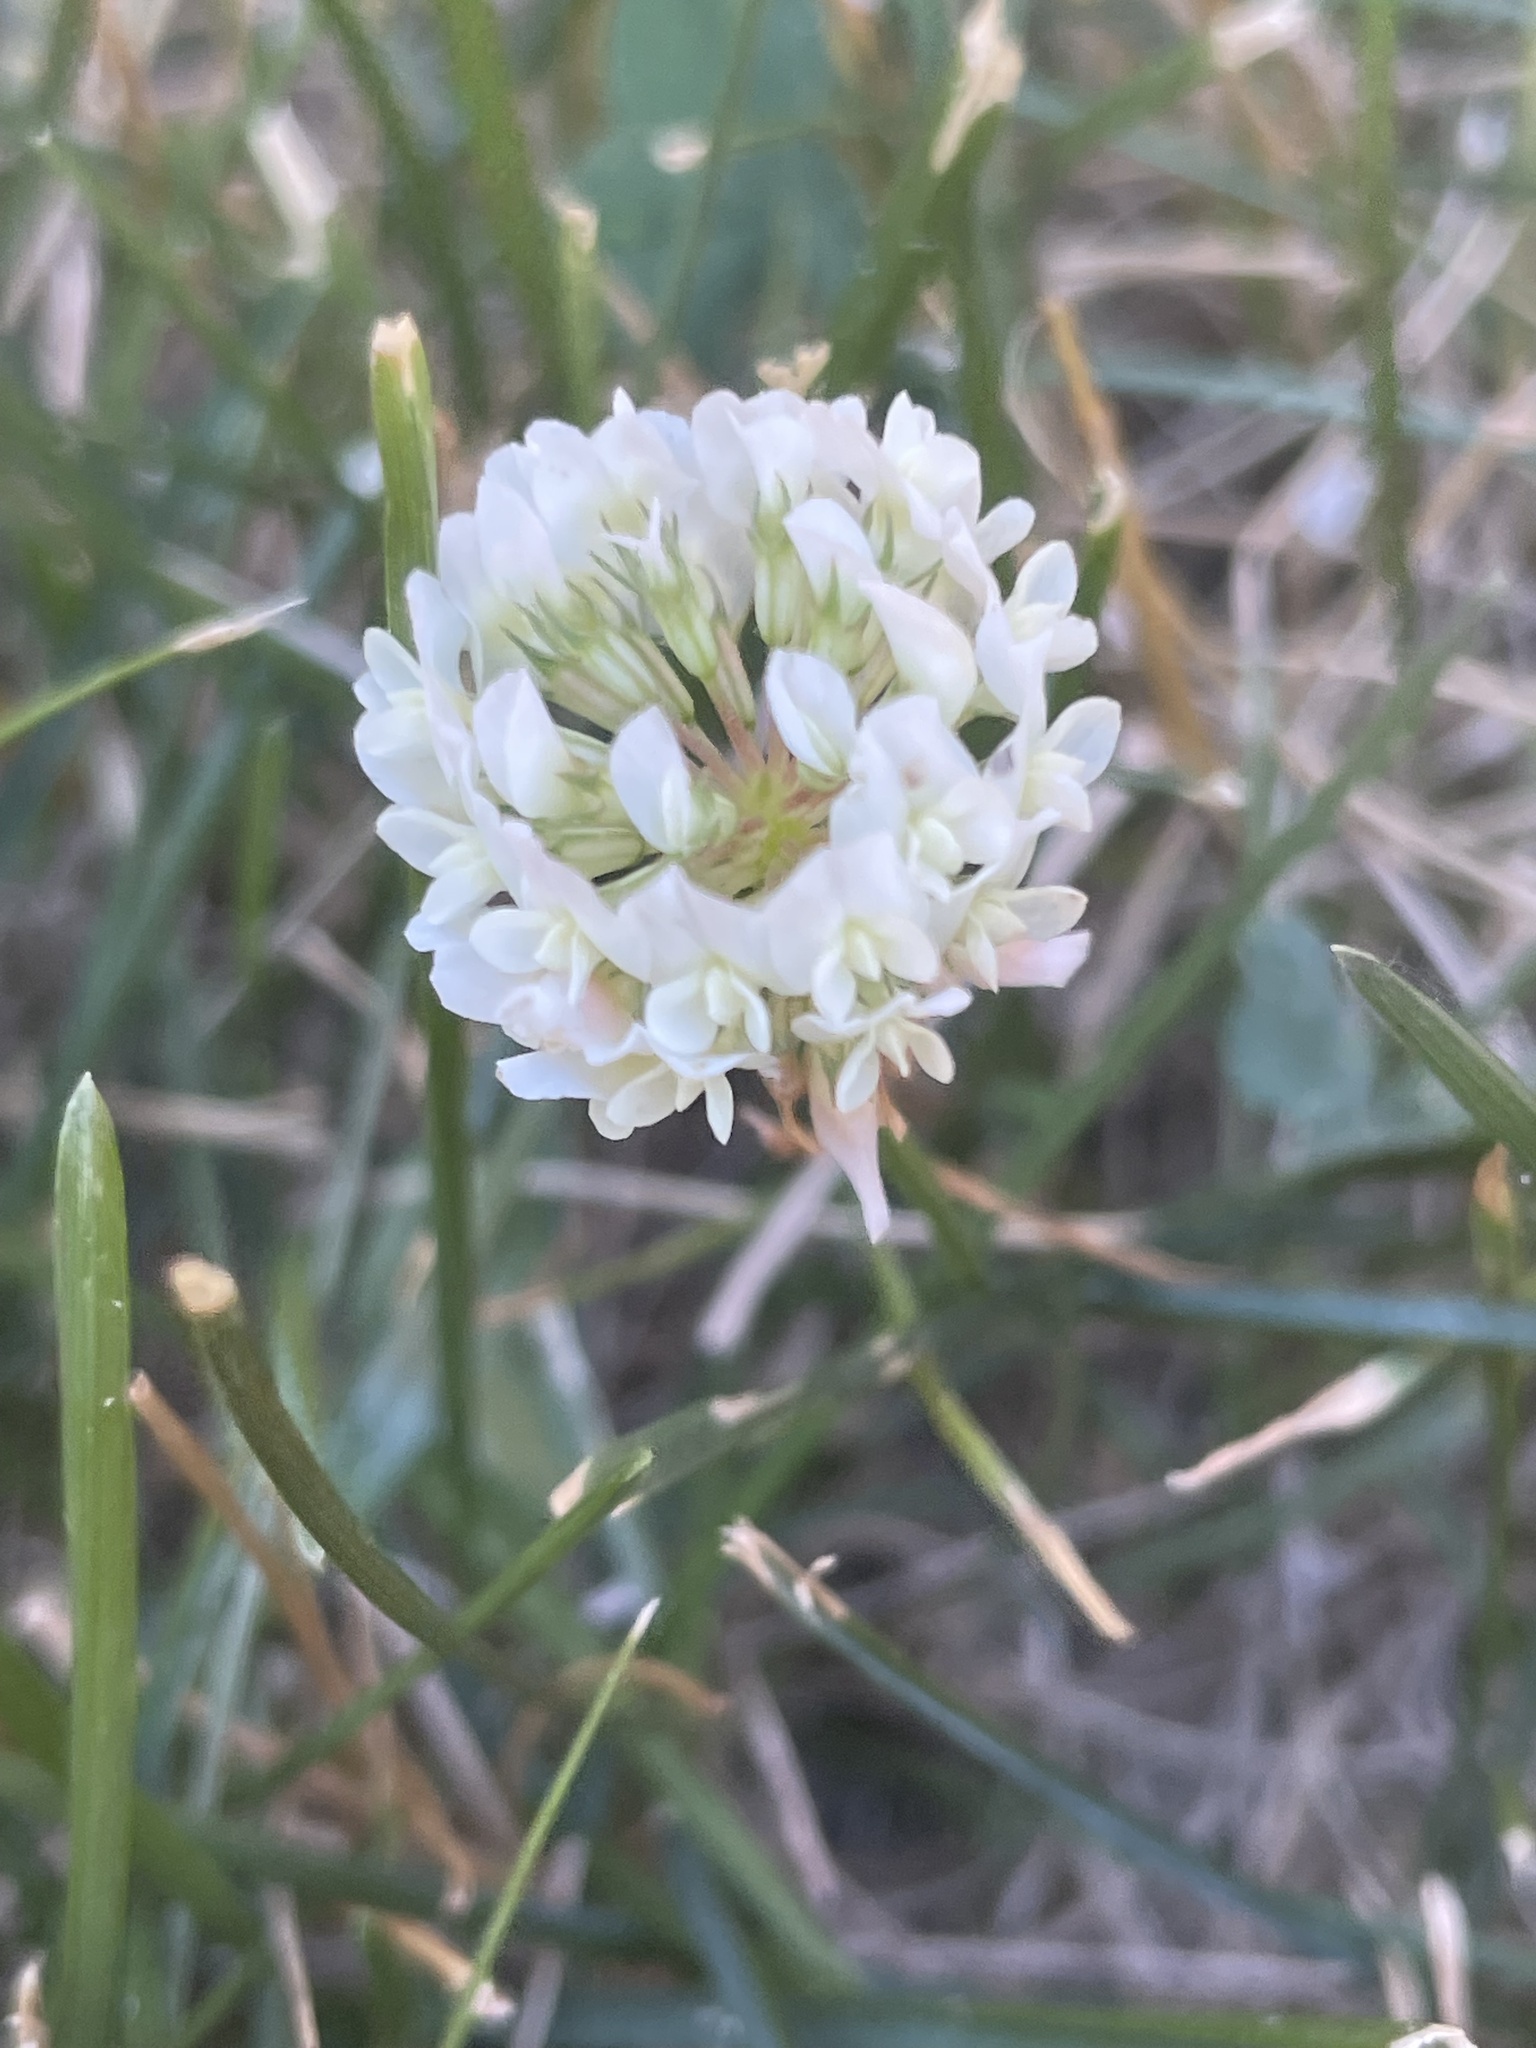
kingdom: Plantae
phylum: Tracheophyta
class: Magnoliopsida
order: Fabales
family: Fabaceae
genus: Trifolium
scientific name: Trifolium repens
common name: White clover
